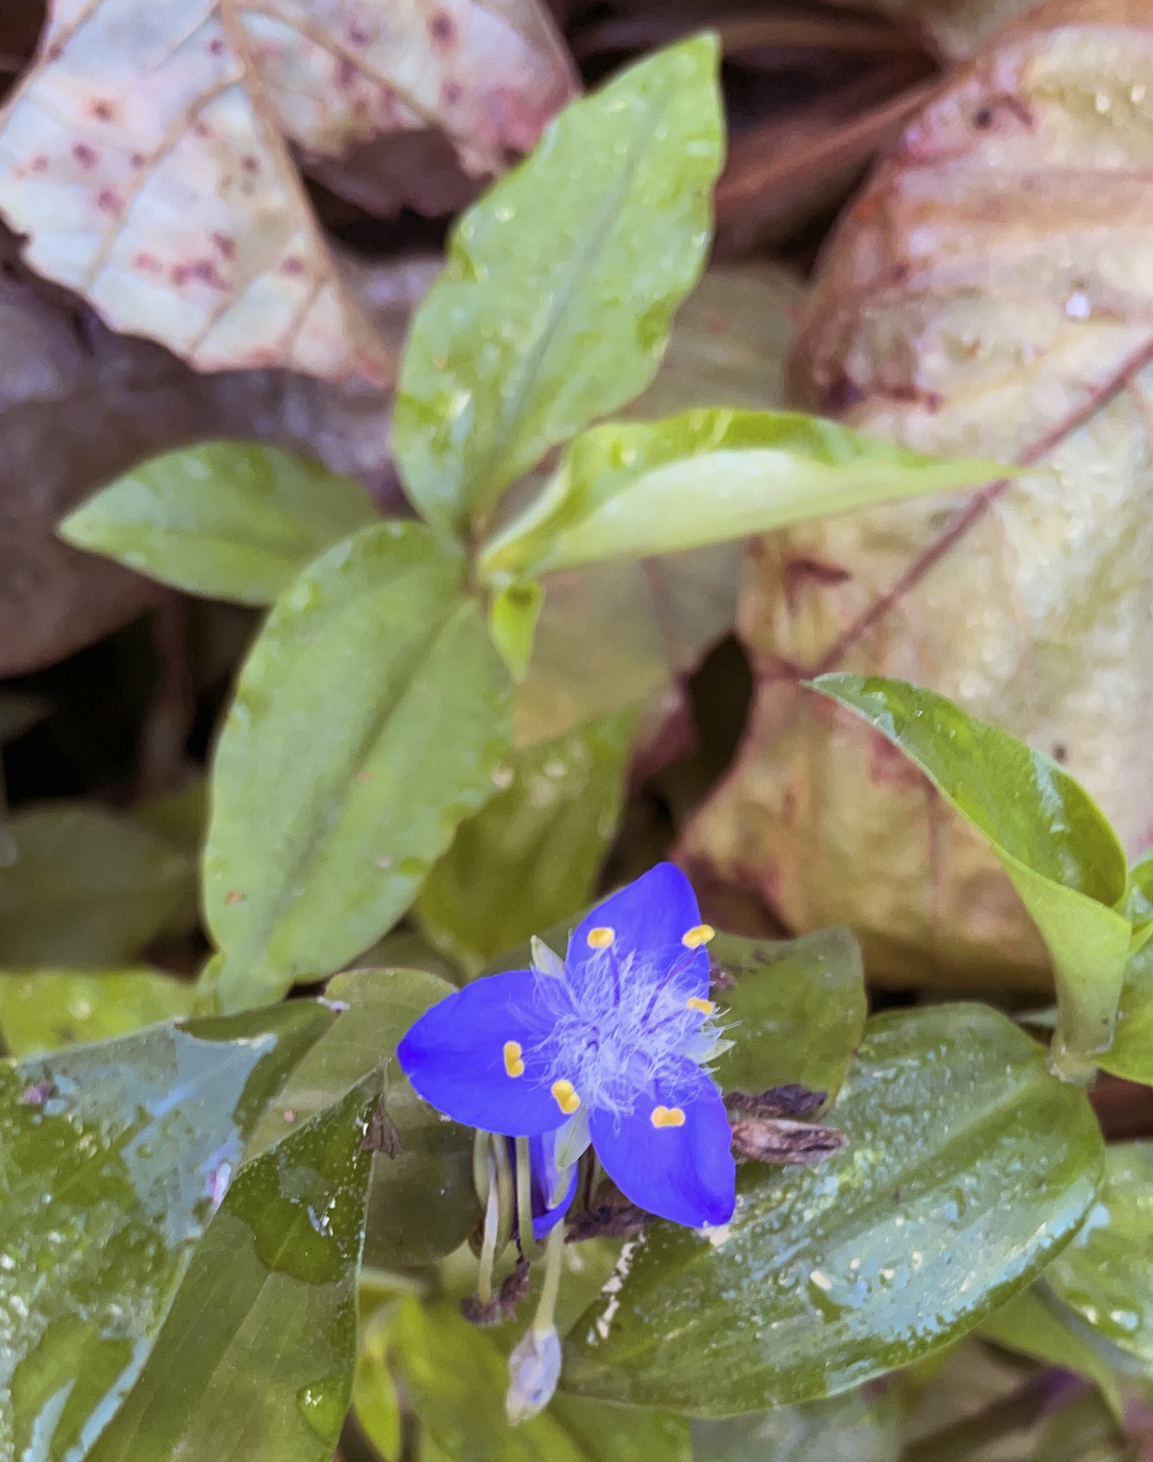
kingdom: Plantae
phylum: Tracheophyta
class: Liliopsida
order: Commelinales
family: Commelinaceae
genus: Elasis
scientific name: Elasis guatemalensis
